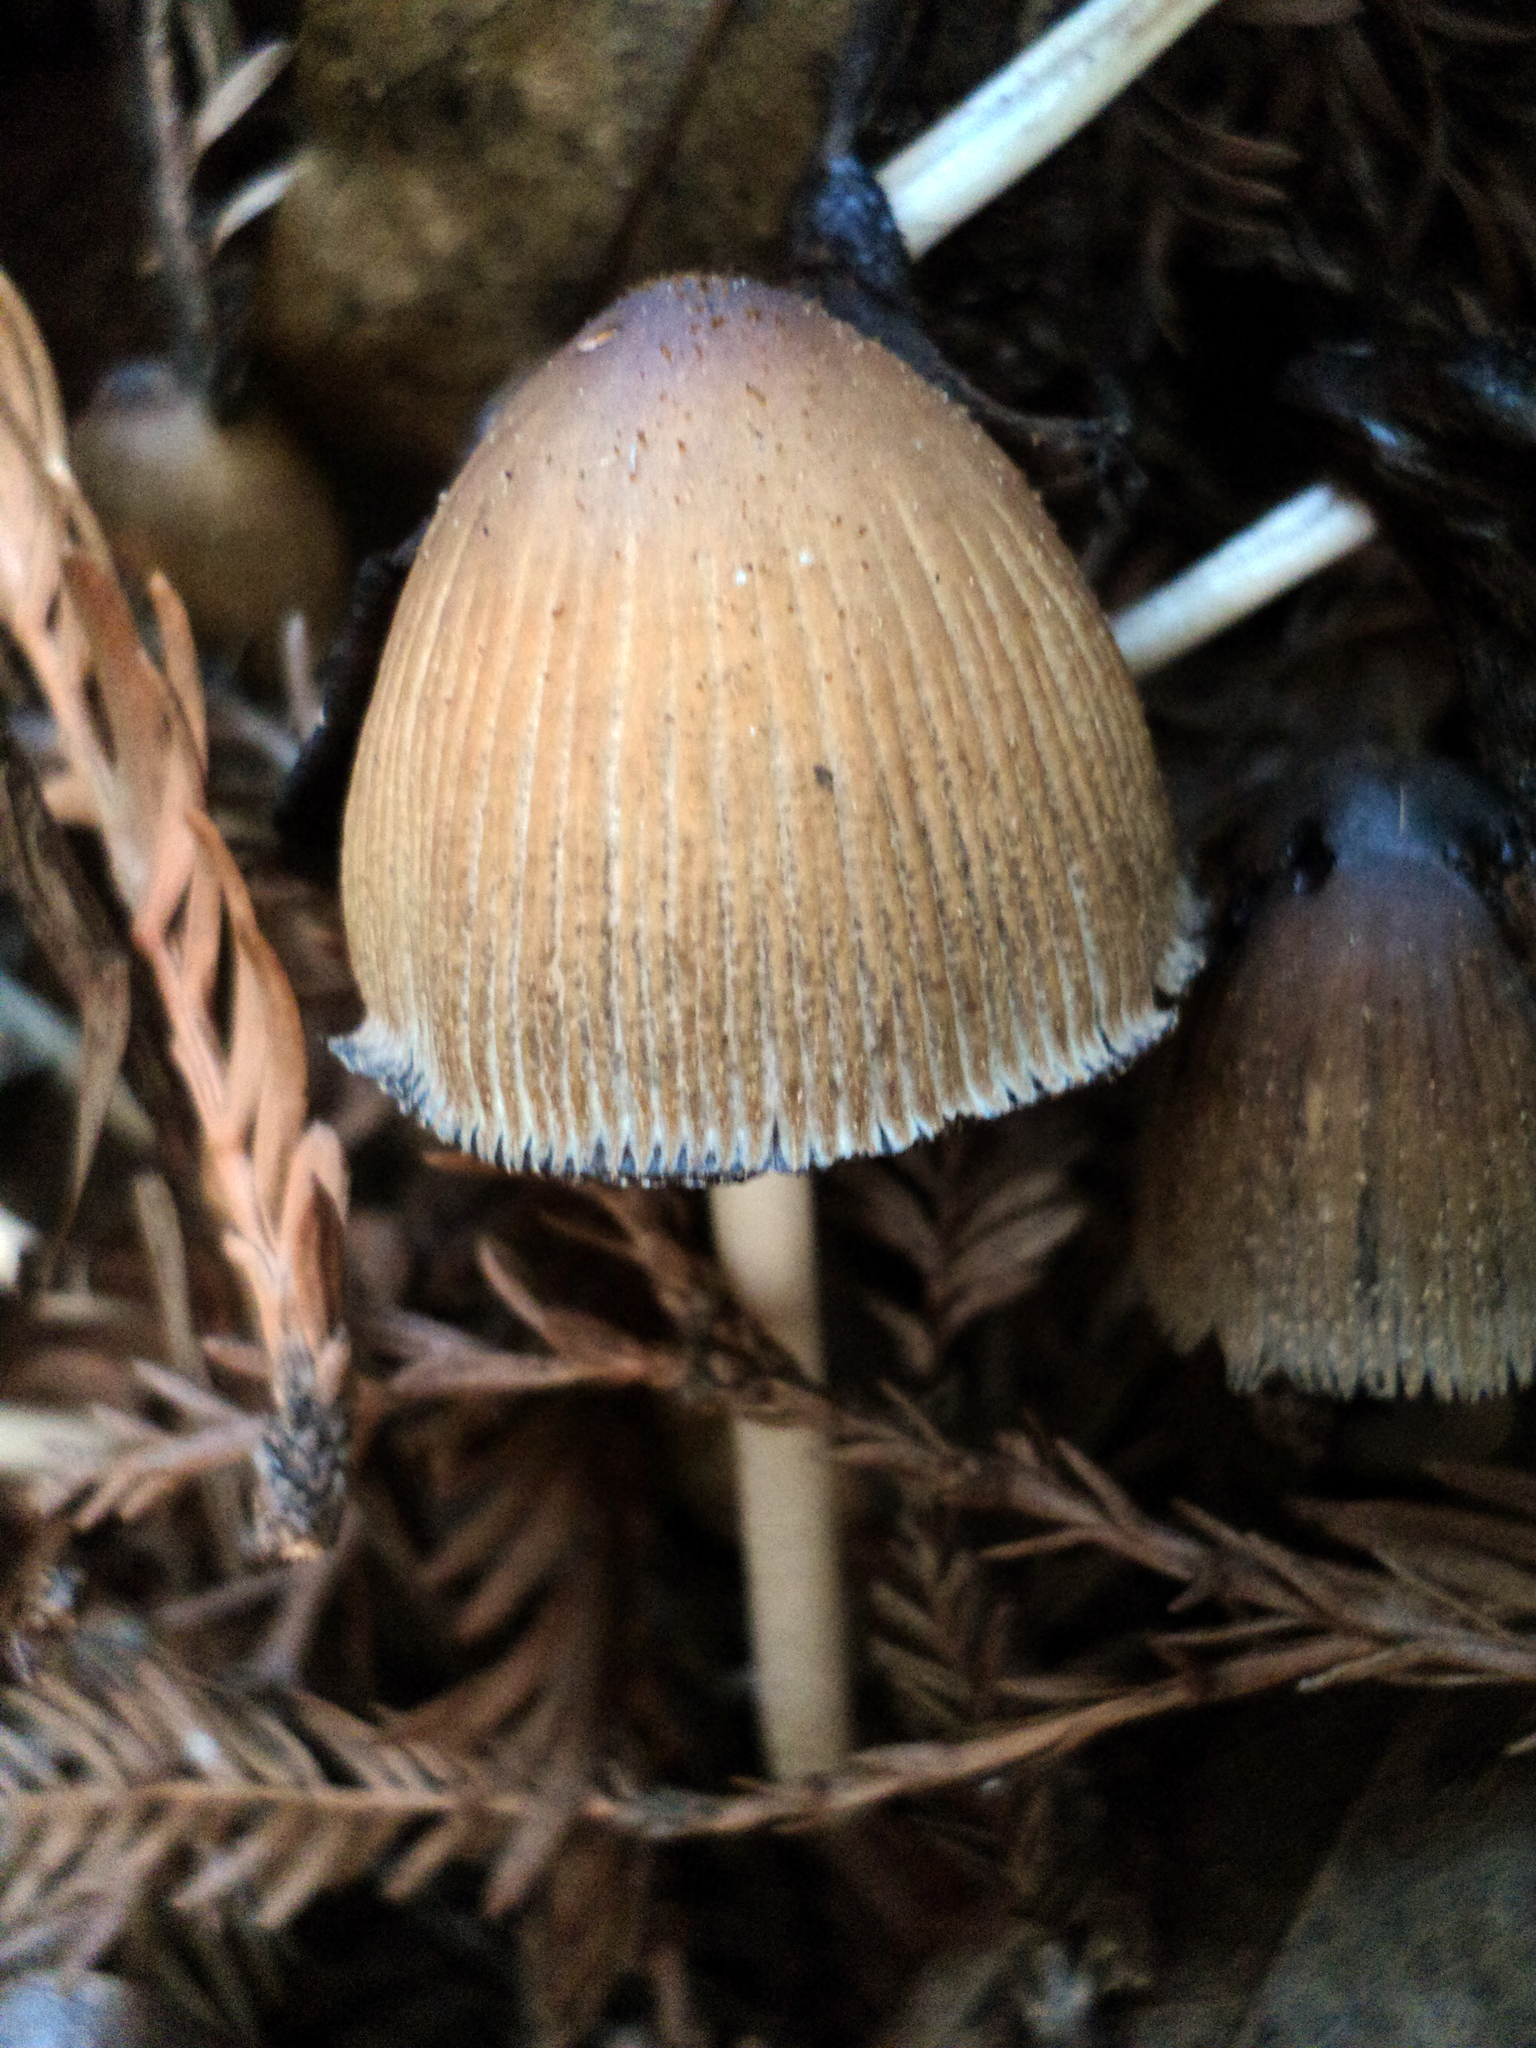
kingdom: Fungi
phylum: Basidiomycota
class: Agaricomycetes
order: Agaricales
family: Psathyrellaceae
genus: Coprinellus
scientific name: Coprinellus micaceus
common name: Glistening ink-cap
